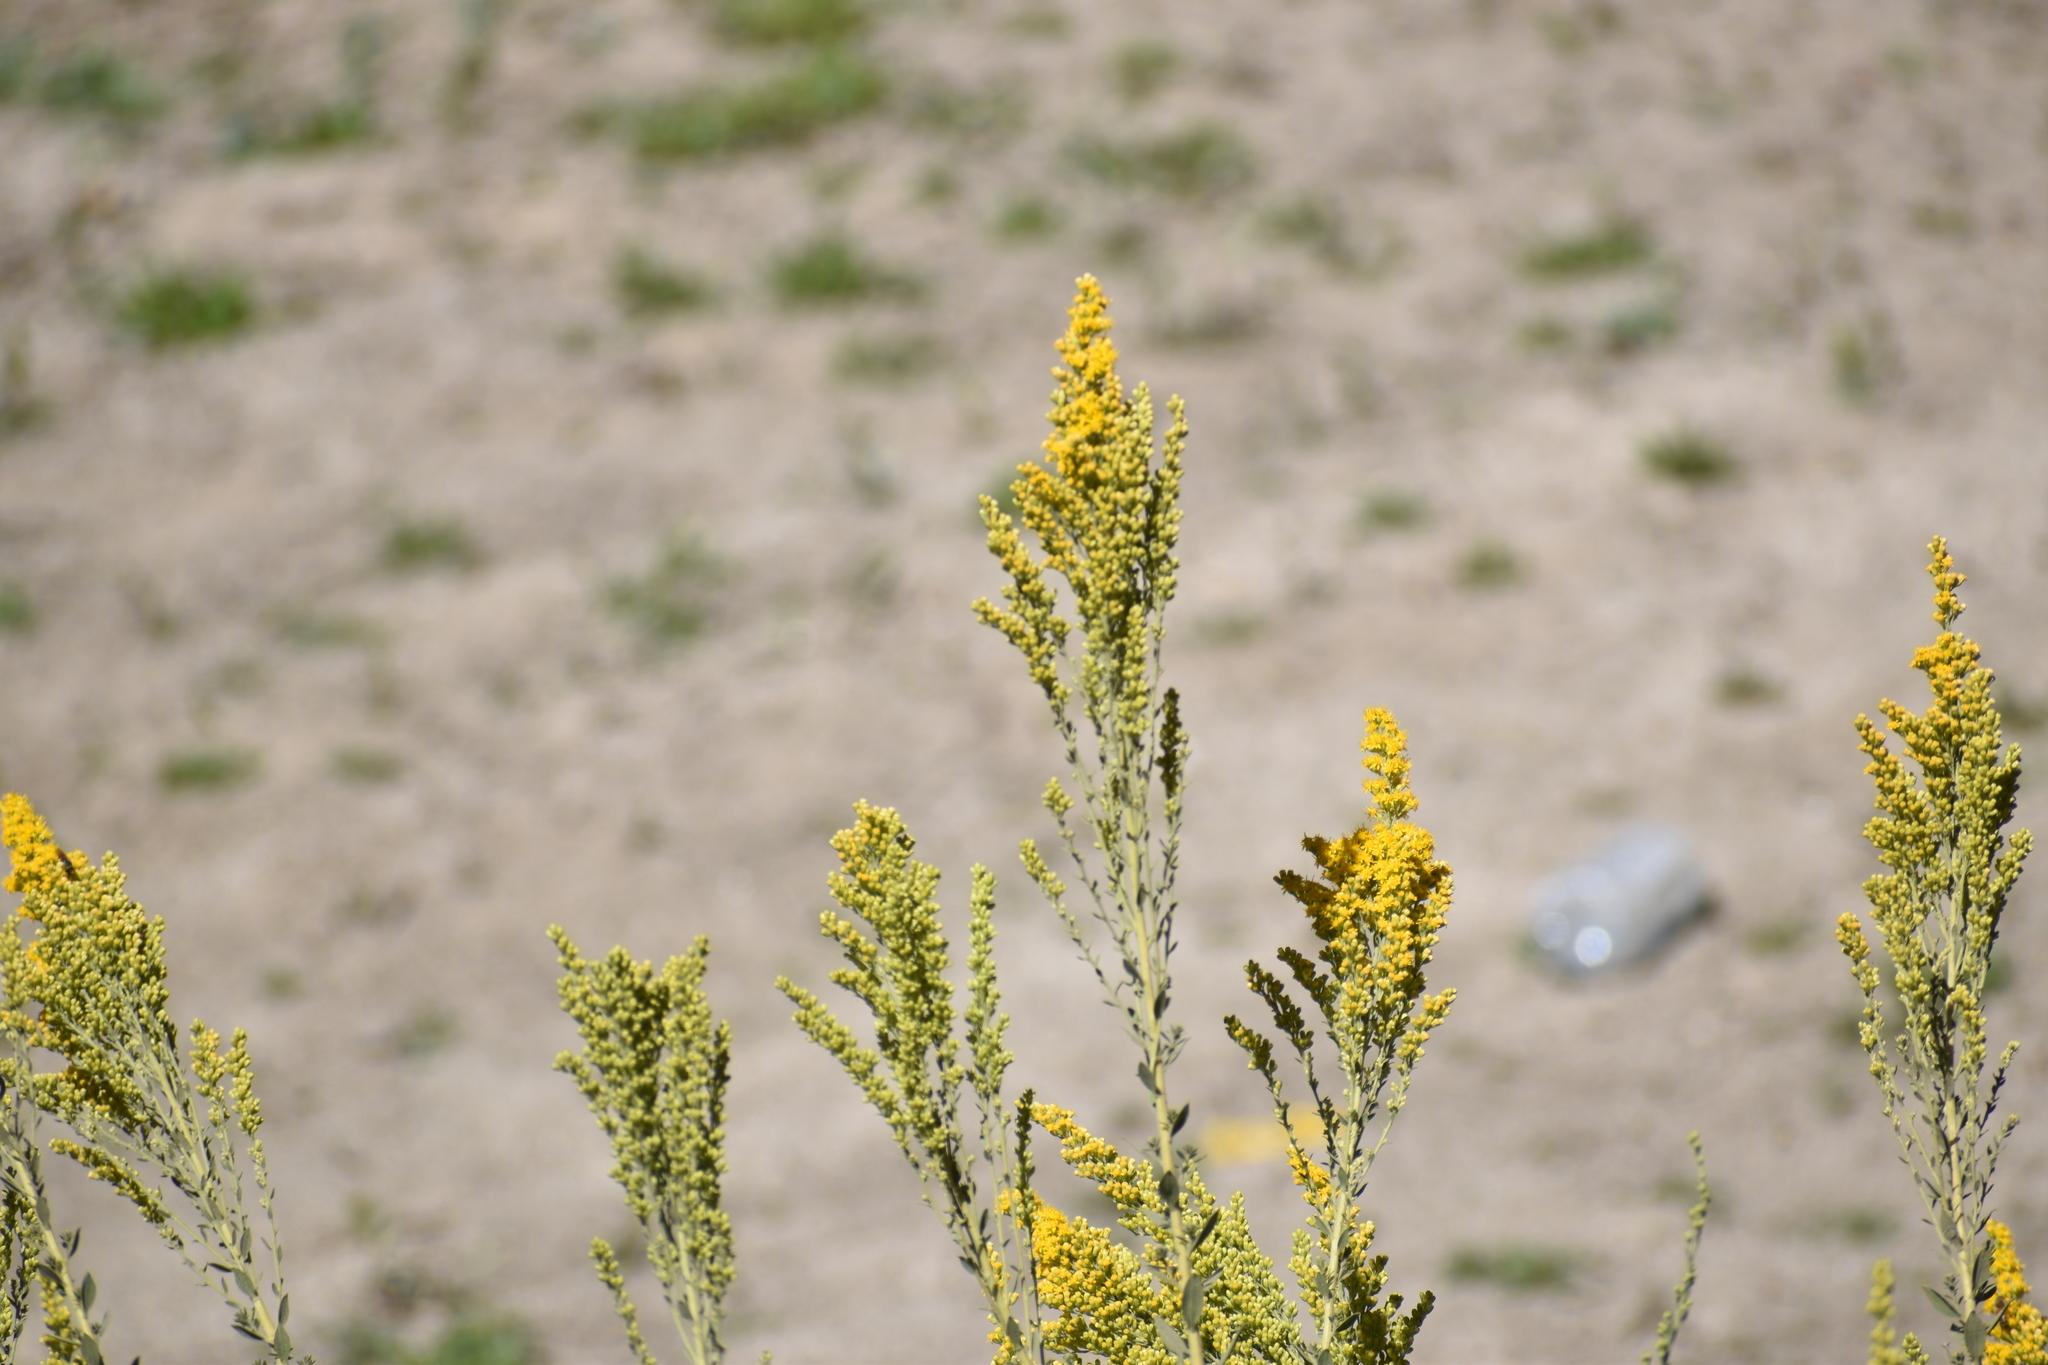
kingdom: Plantae
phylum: Tracheophyta
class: Magnoliopsida
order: Asterales
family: Asteraceae
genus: Solidago
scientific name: Solidago velutina
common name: Three-nerve goldenrod
